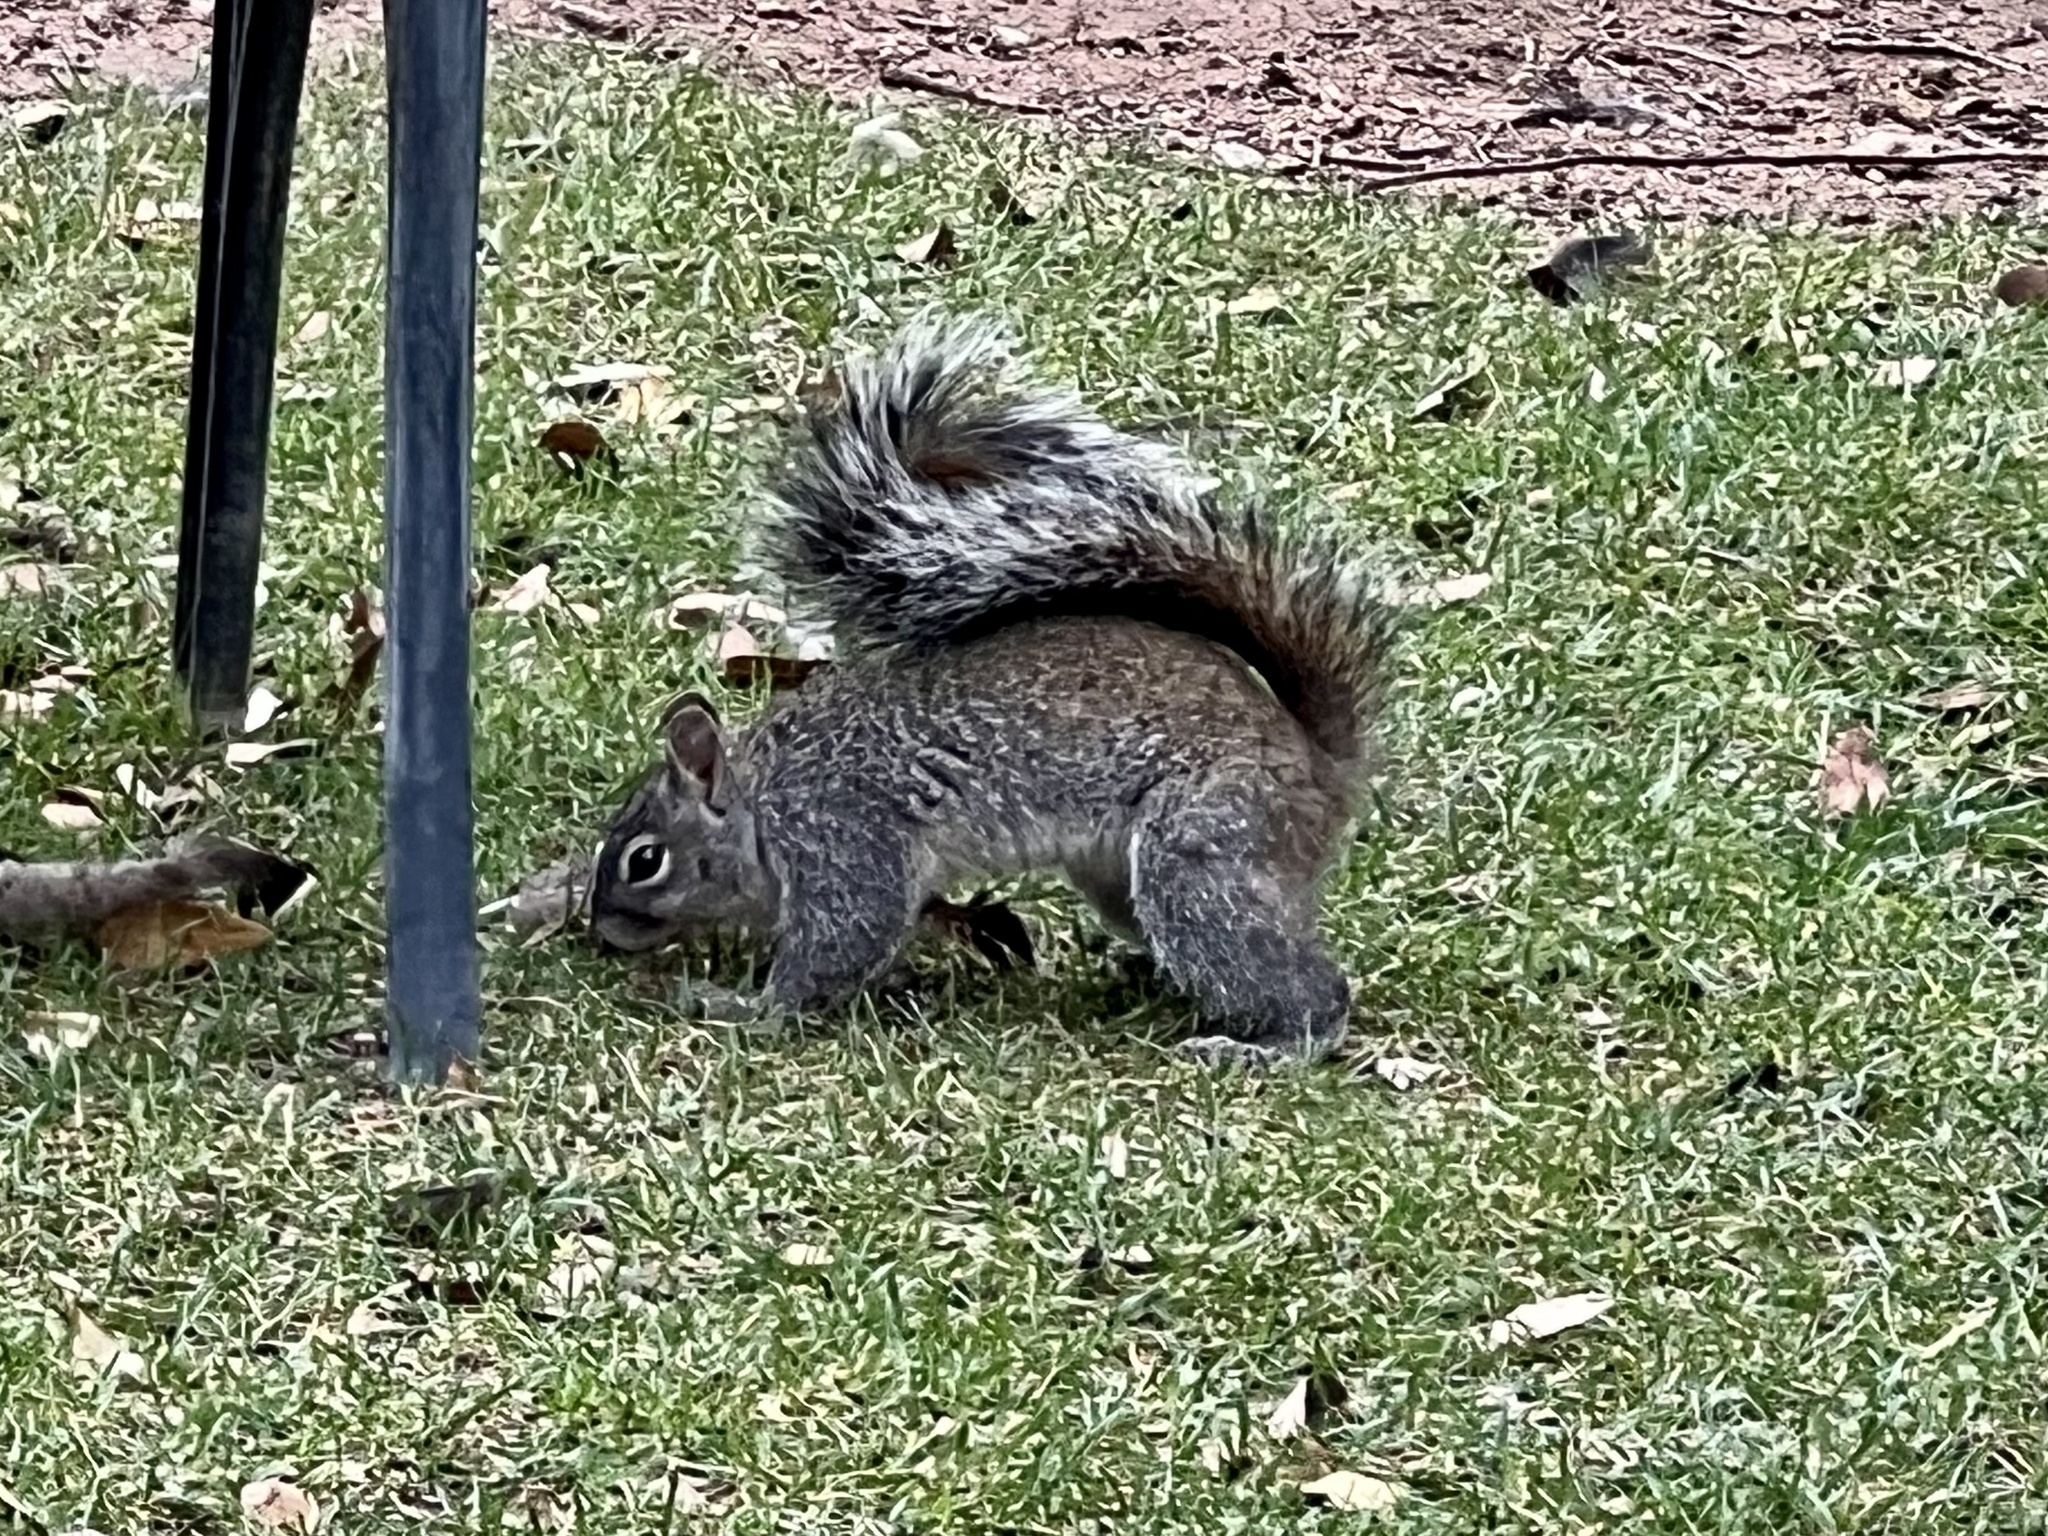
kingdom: Animalia
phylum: Chordata
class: Mammalia
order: Rodentia
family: Sciuridae
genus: Sciurus
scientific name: Sciurus arizonensis
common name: Arizona gray squirrel
